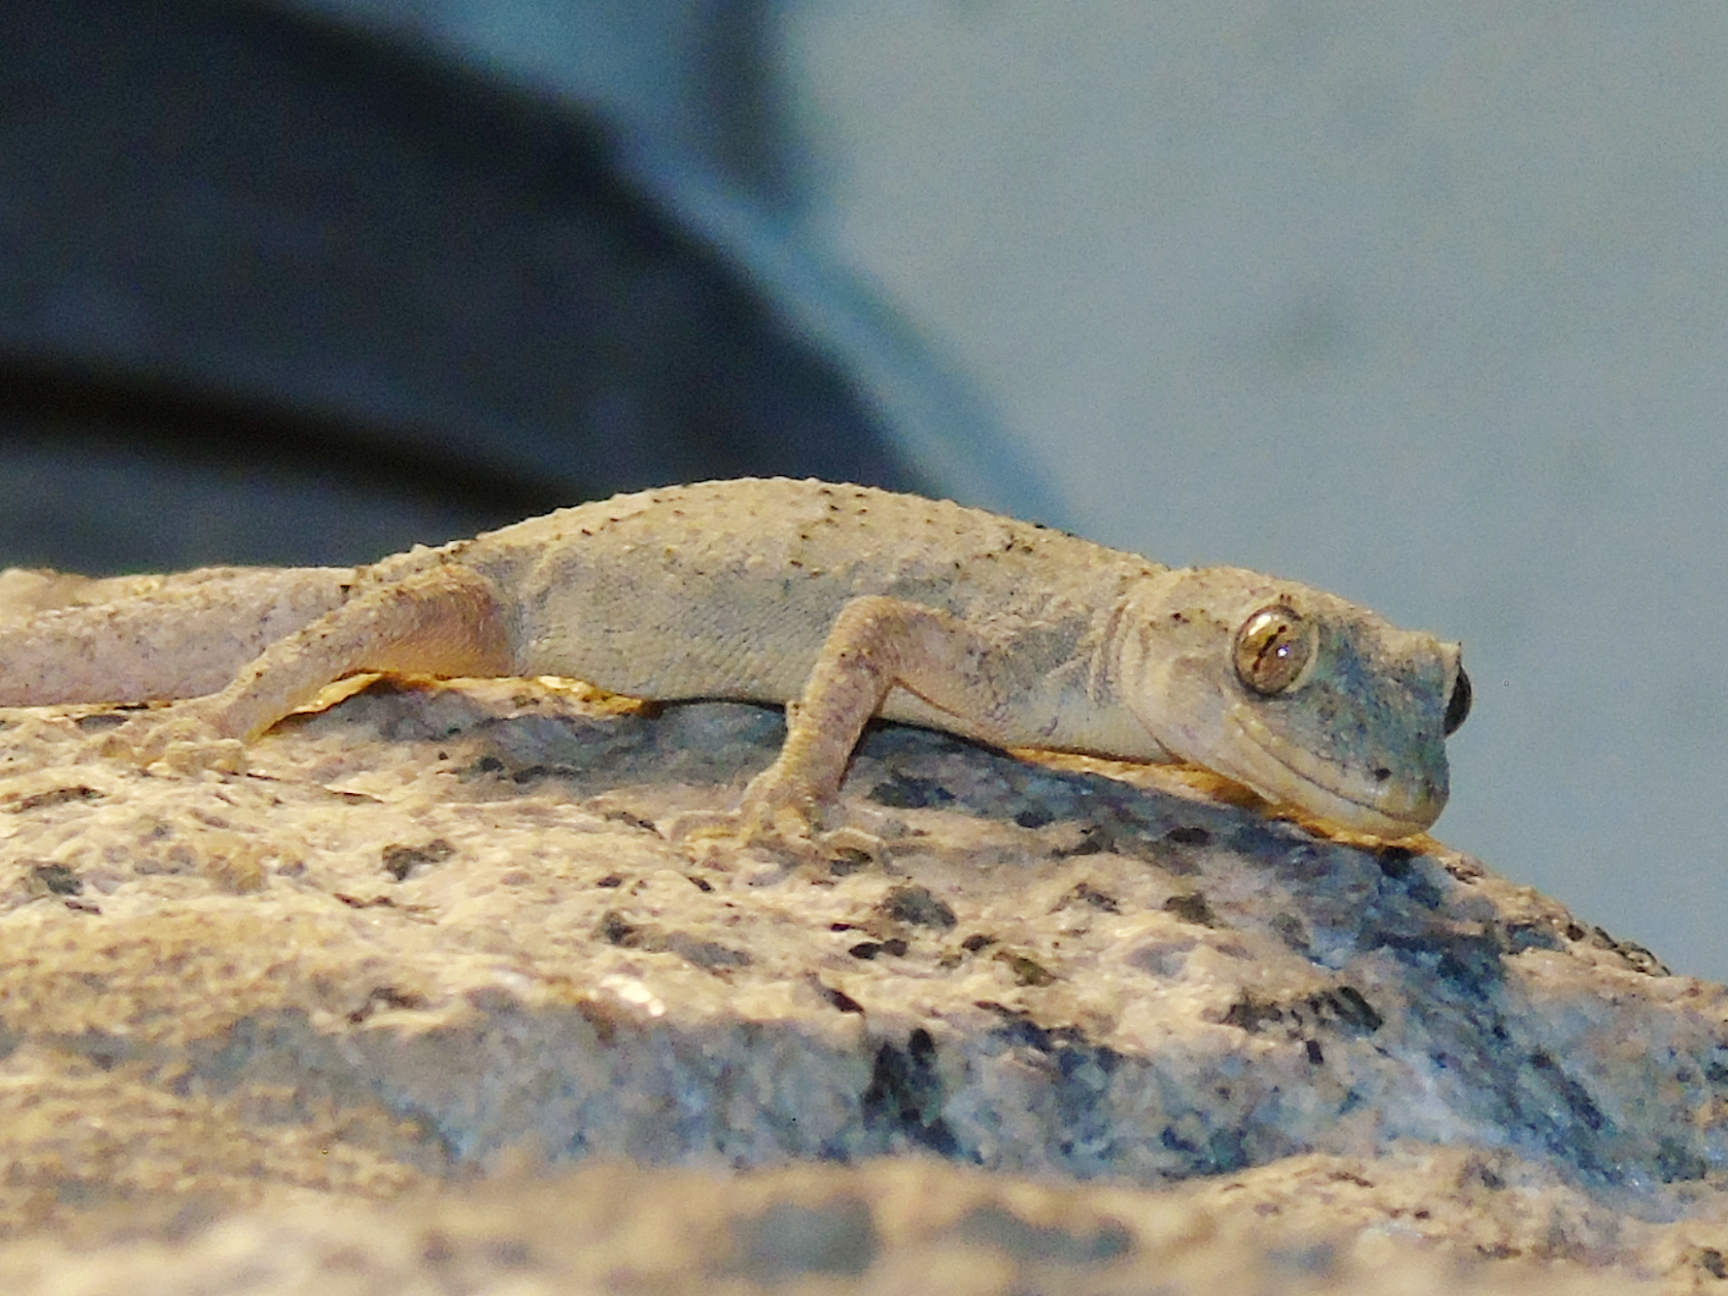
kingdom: Animalia
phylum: Chordata
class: Squamata
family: Gekkonidae
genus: Mediodactylus
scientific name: Mediodactylus danilewskii
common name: Bulgarian bent-toed gecko
